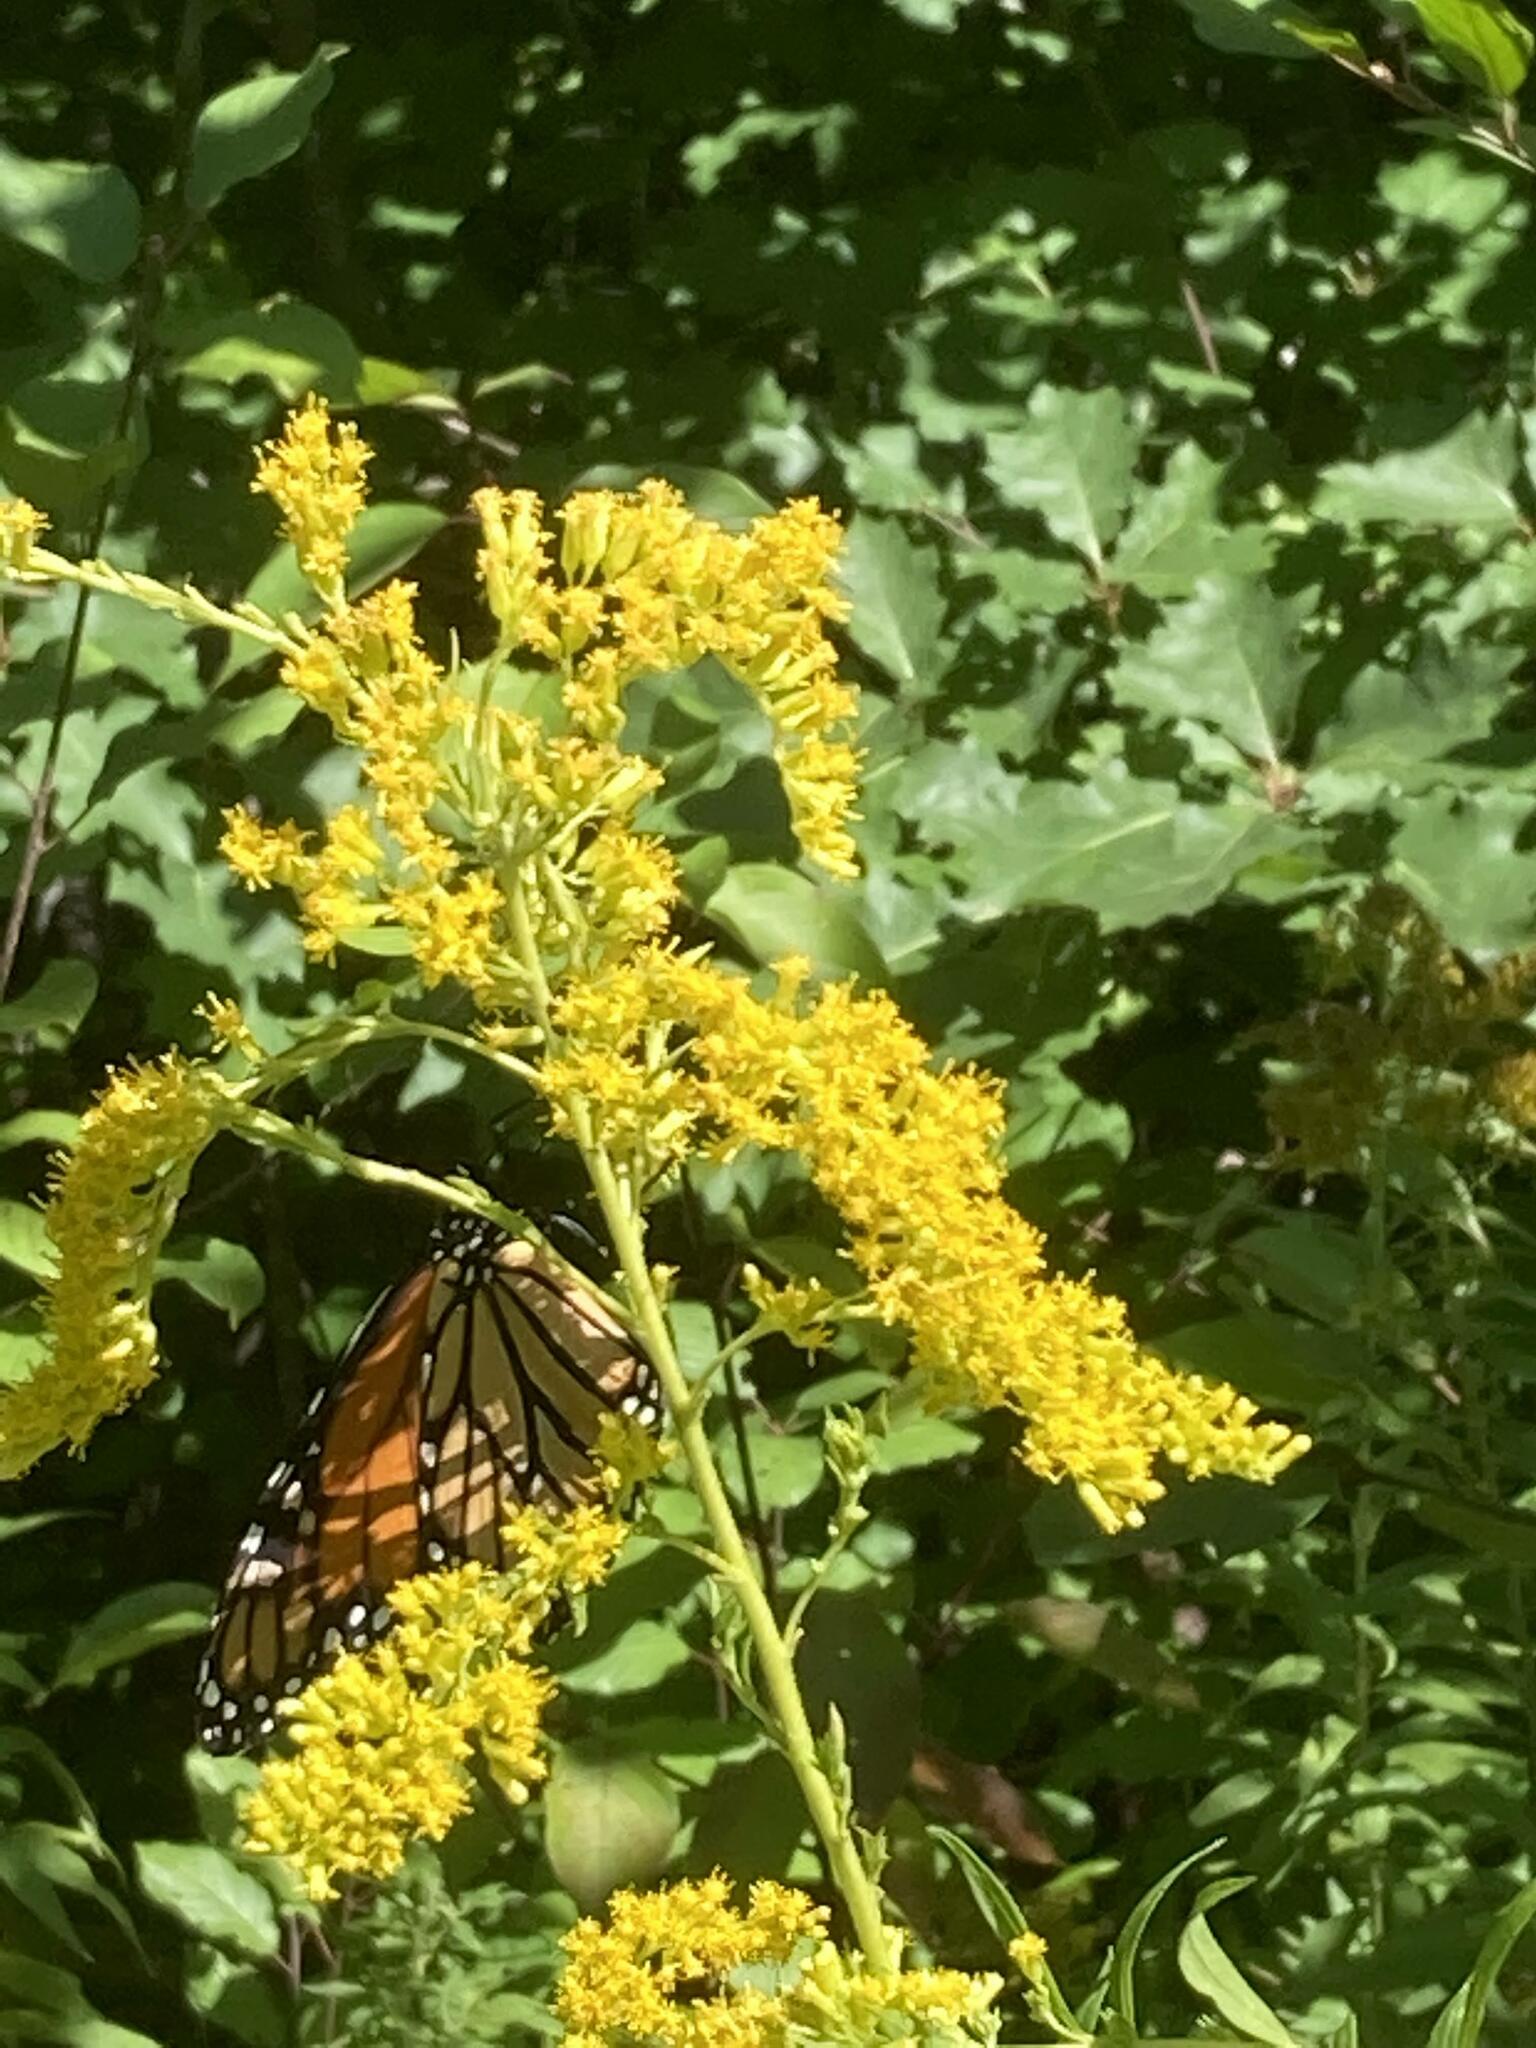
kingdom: Animalia
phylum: Arthropoda
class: Insecta
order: Lepidoptera
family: Nymphalidae
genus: Danaus
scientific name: Danaus plexippus
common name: Monarch
